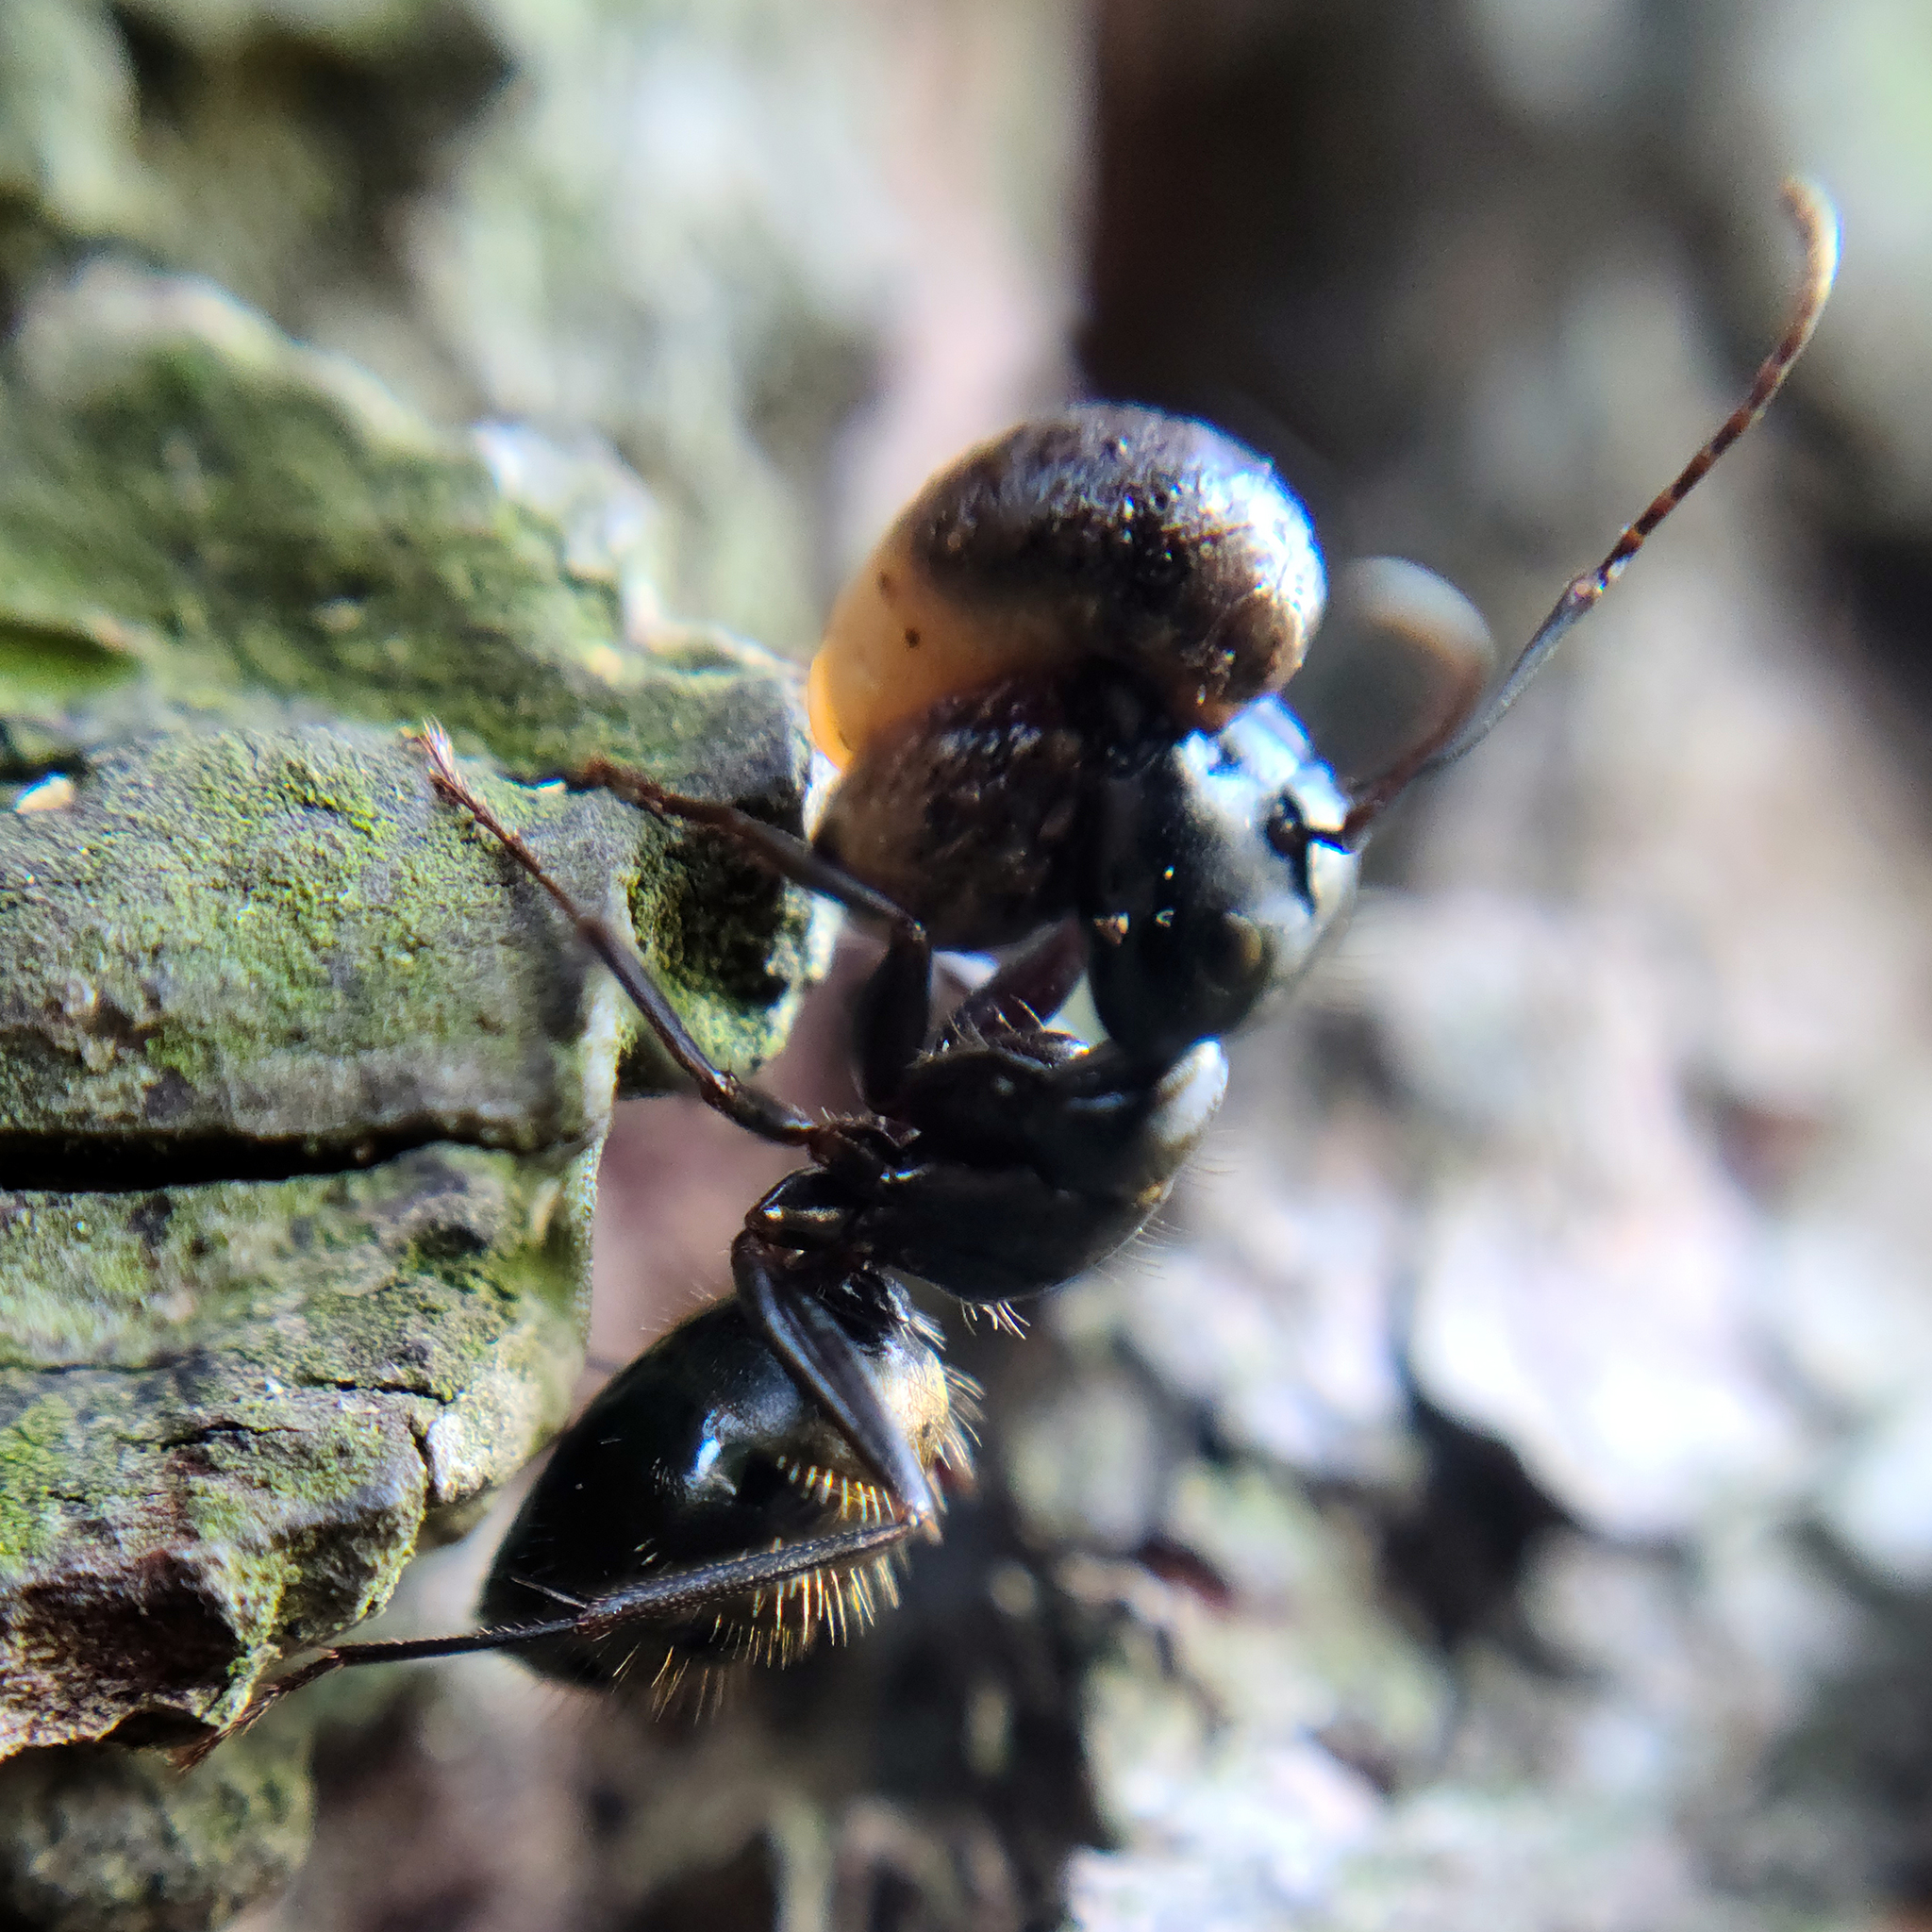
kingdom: Animalia
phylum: Arthropoda
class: Insecta
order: Hymenoptera
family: Formicidae
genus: Camponotus
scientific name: Camponotus pennsylvanicus
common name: Black carpenter ant
